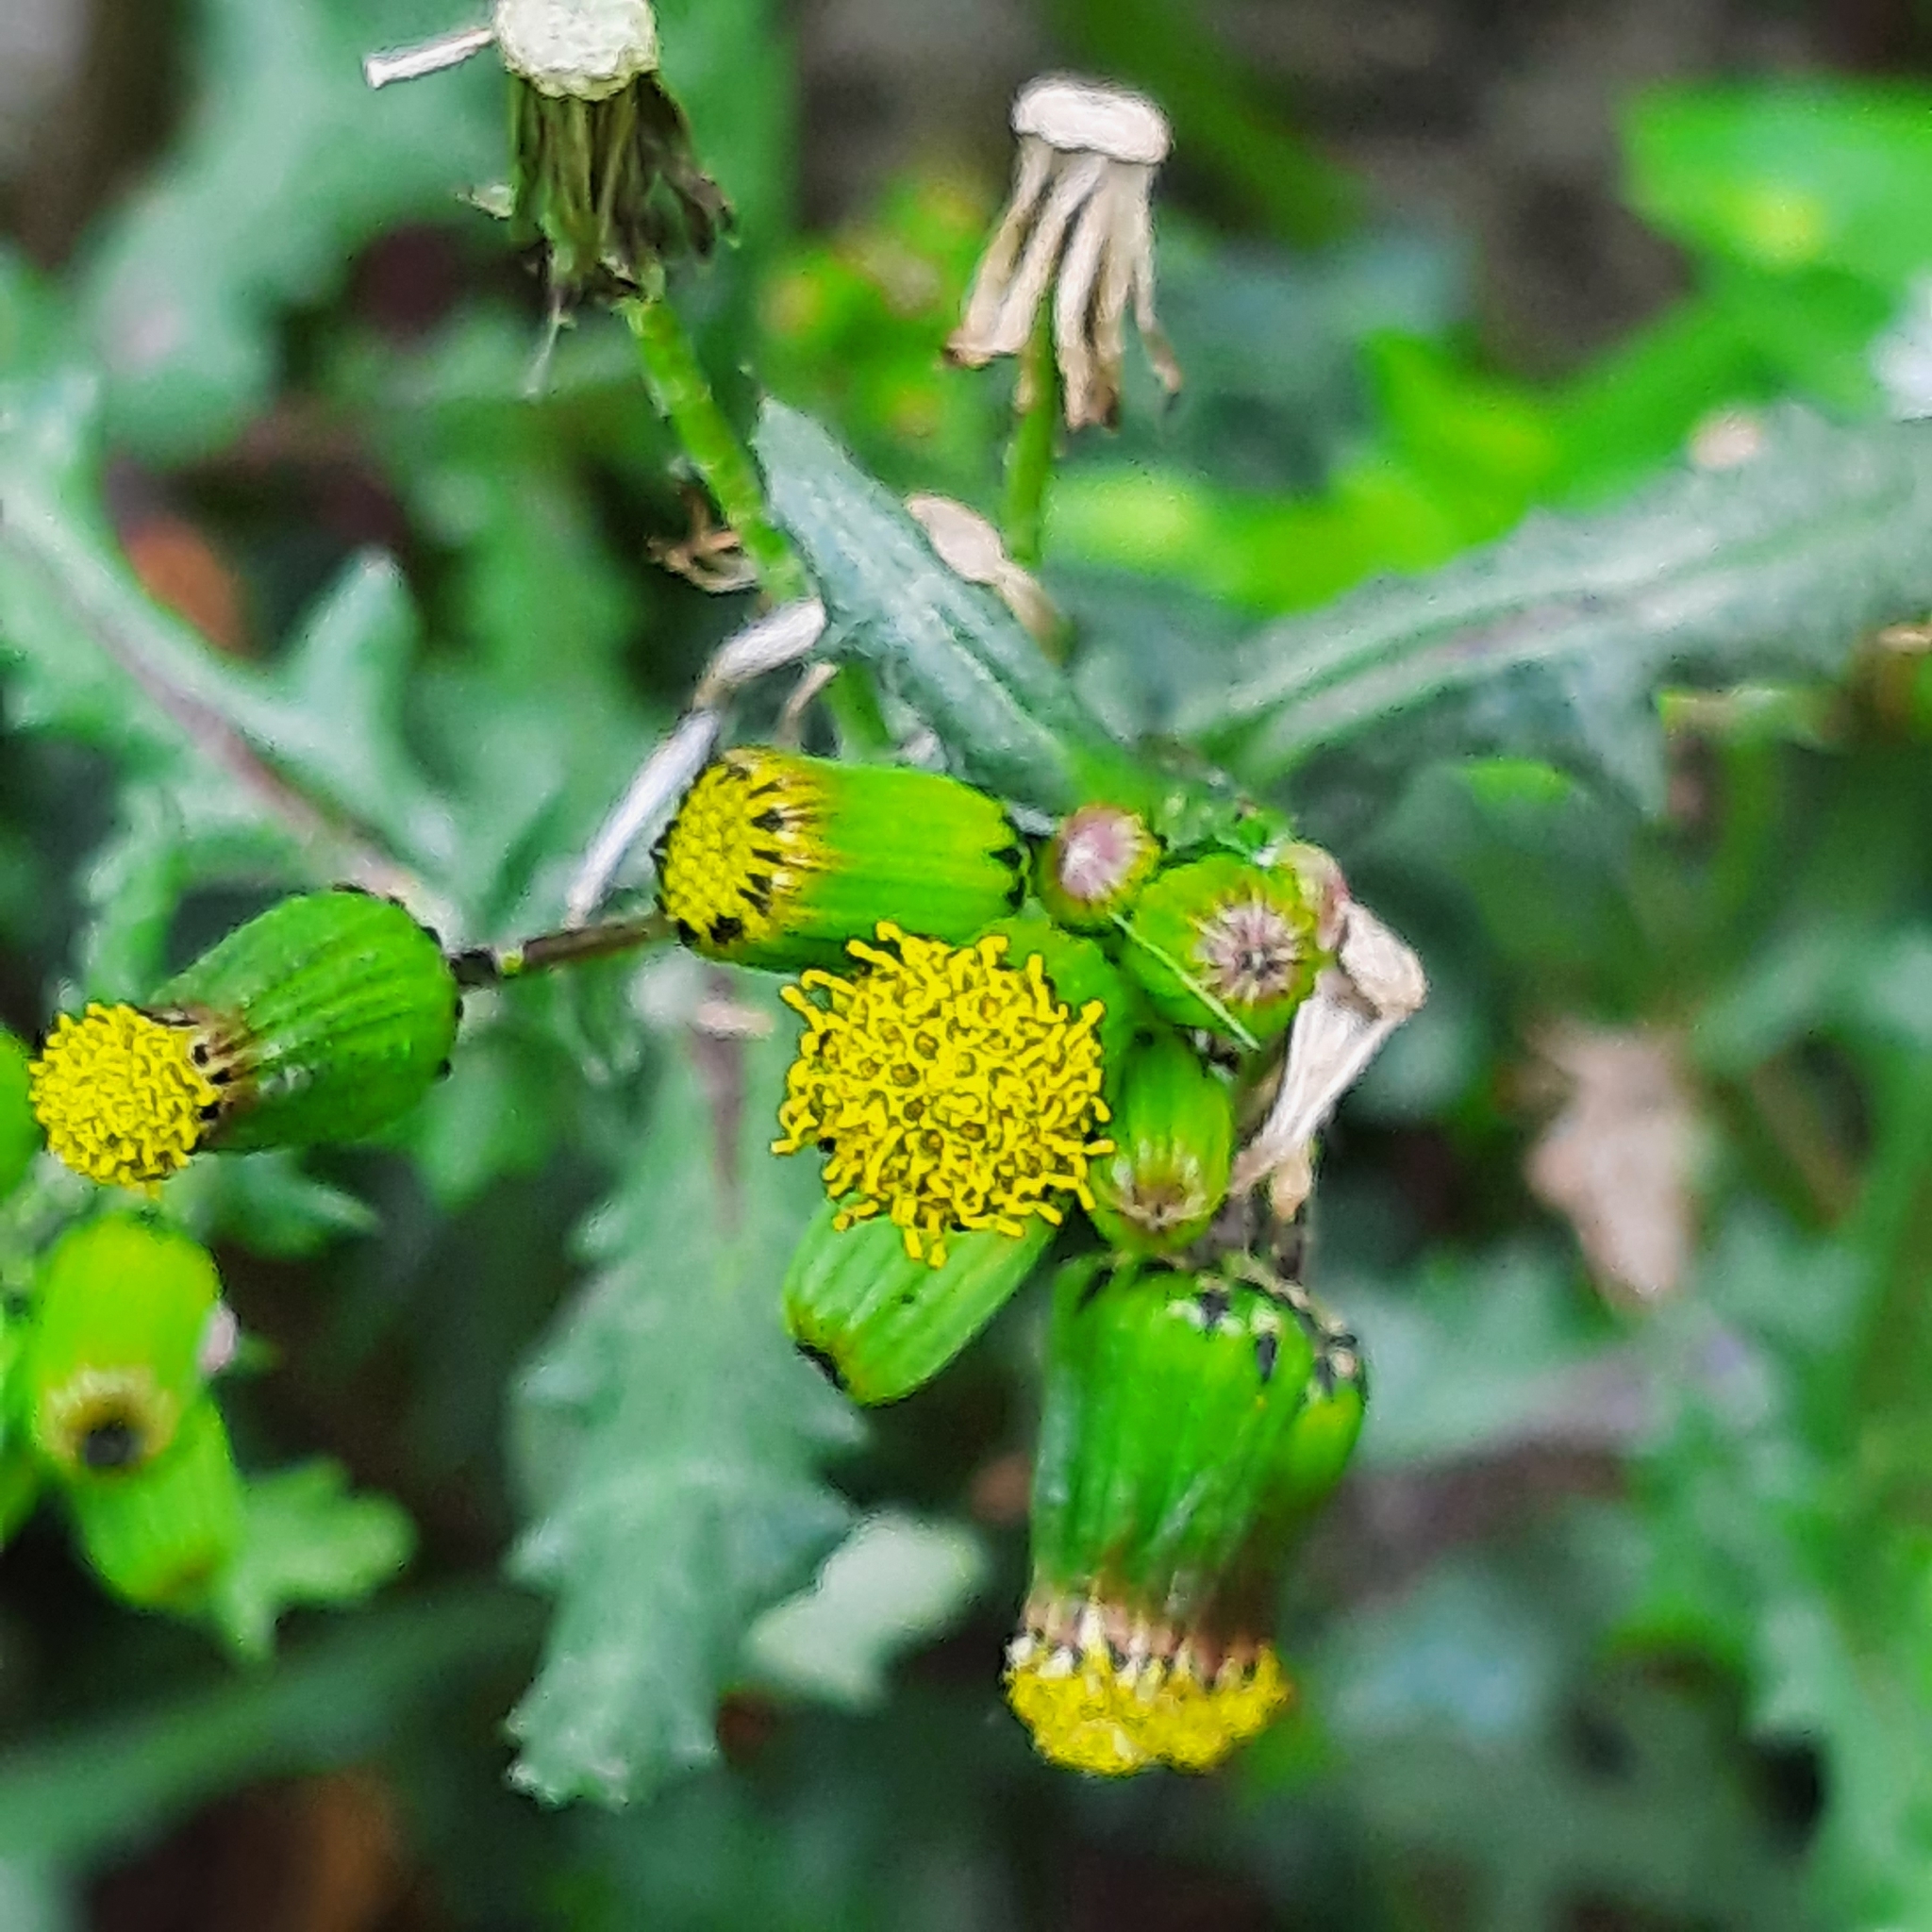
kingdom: Plantae
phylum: Tracheophyta
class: Magnoliopsida
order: Asterales
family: Asteraceae
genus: Senecio
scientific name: Senecio vulgaris
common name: Old-man-in-the-spring
